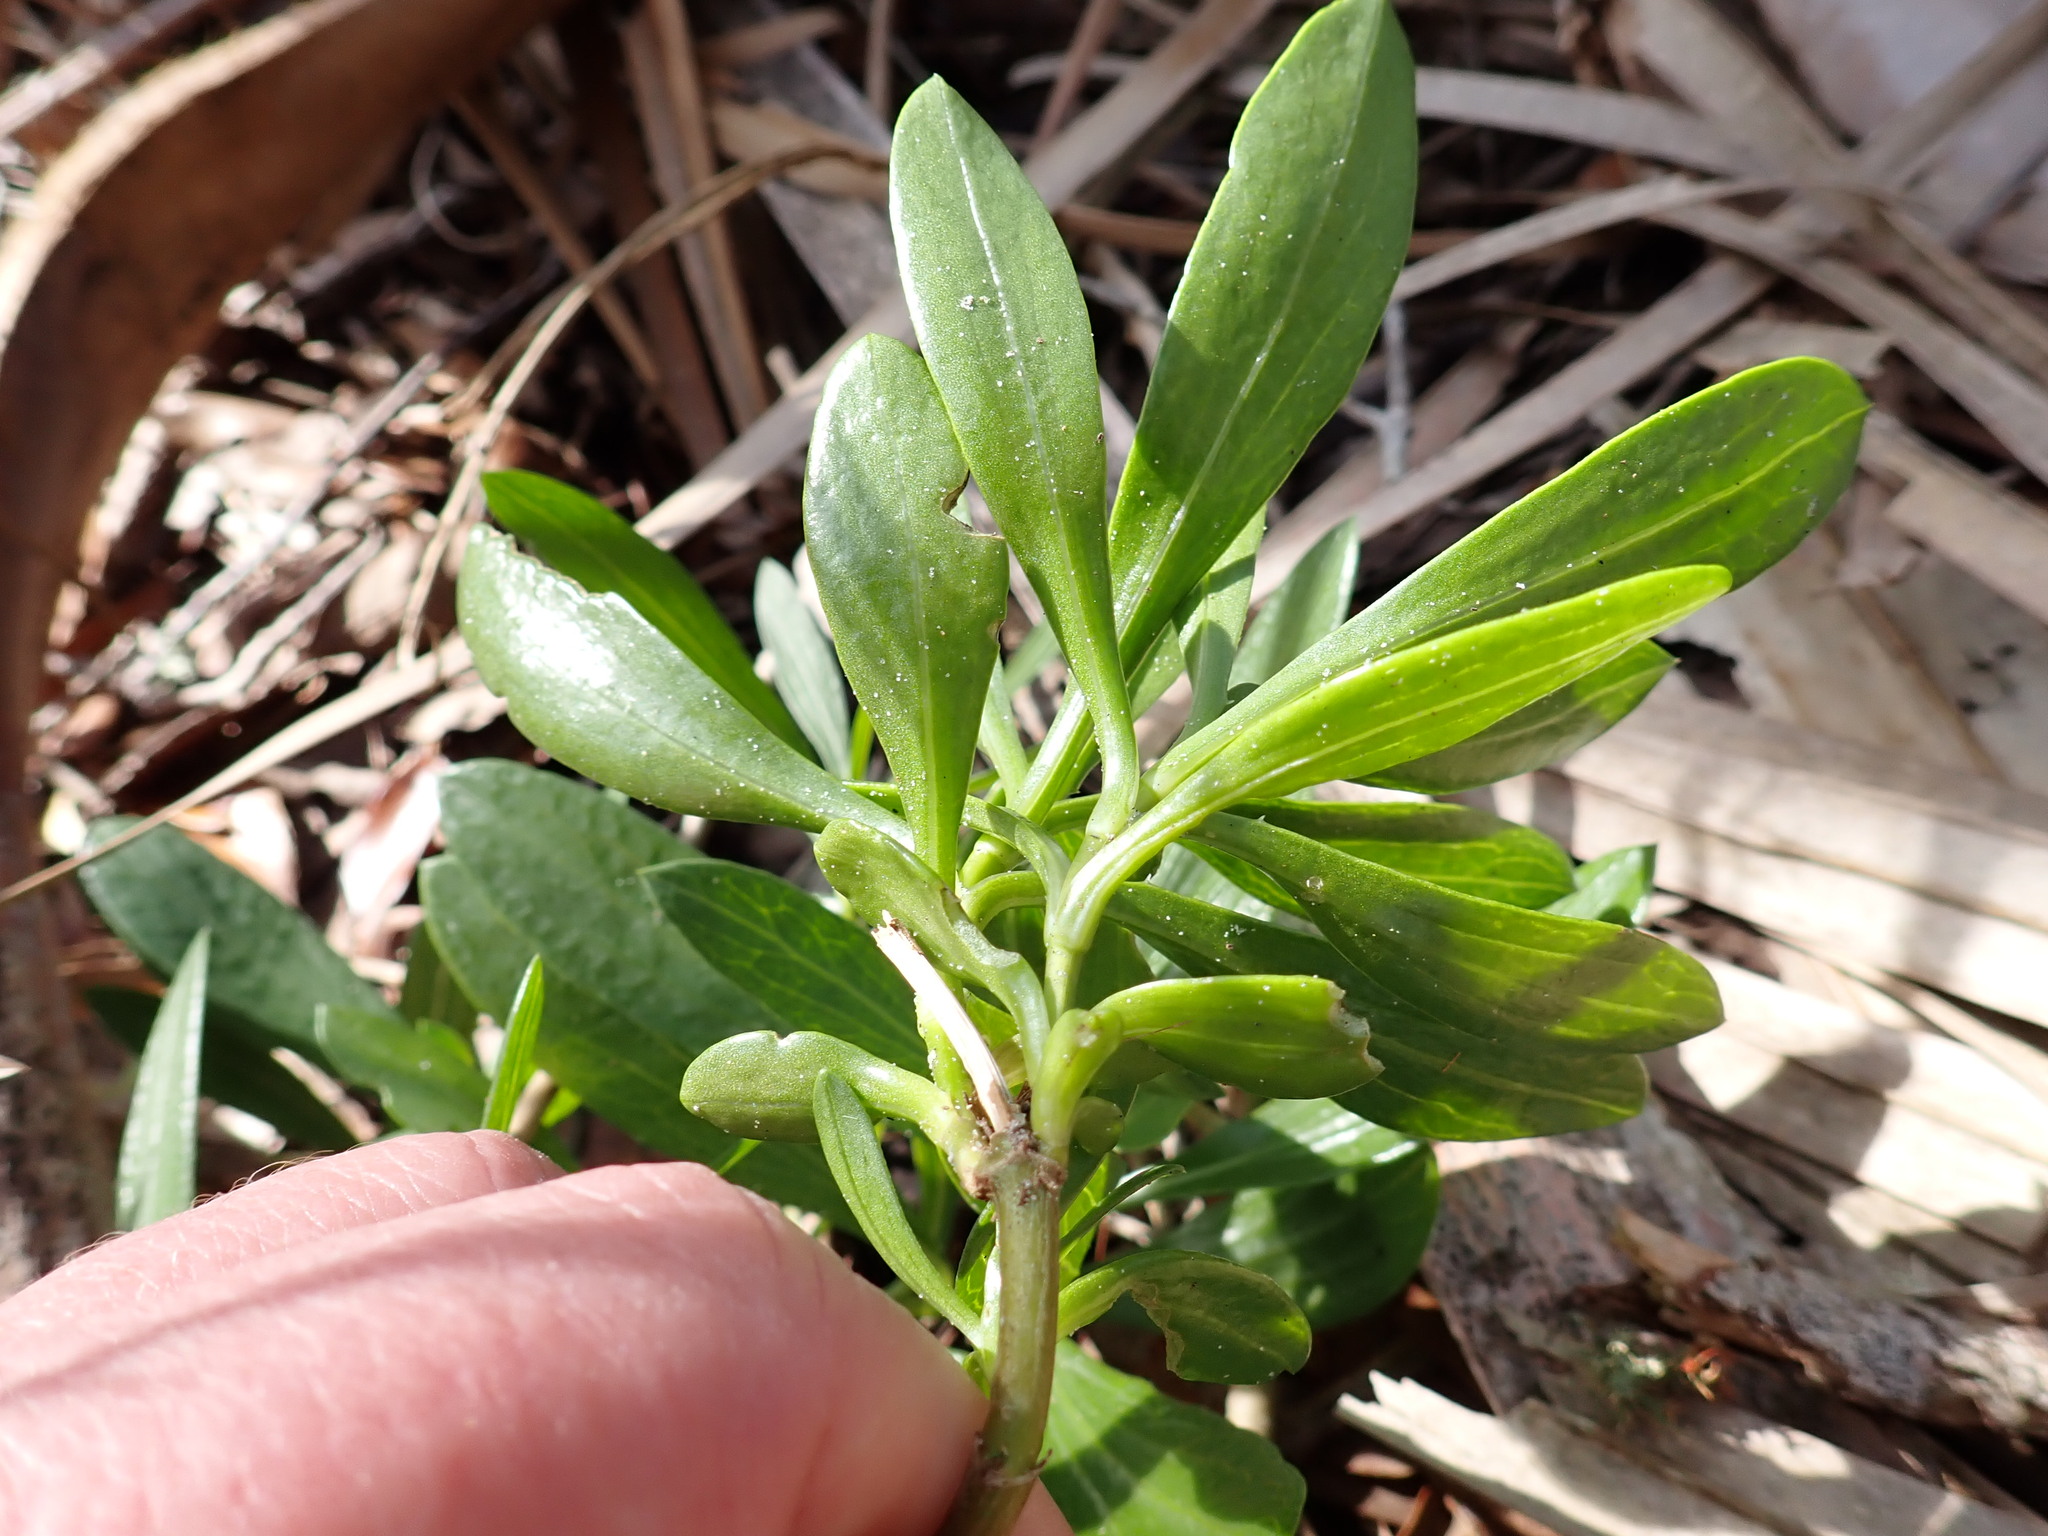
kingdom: Plantae
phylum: Tracheophyta
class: Magnoliopsida
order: Asterales
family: Asteraceae
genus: Borrichia
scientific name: Borrichia frutescens
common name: Sea oxeye
